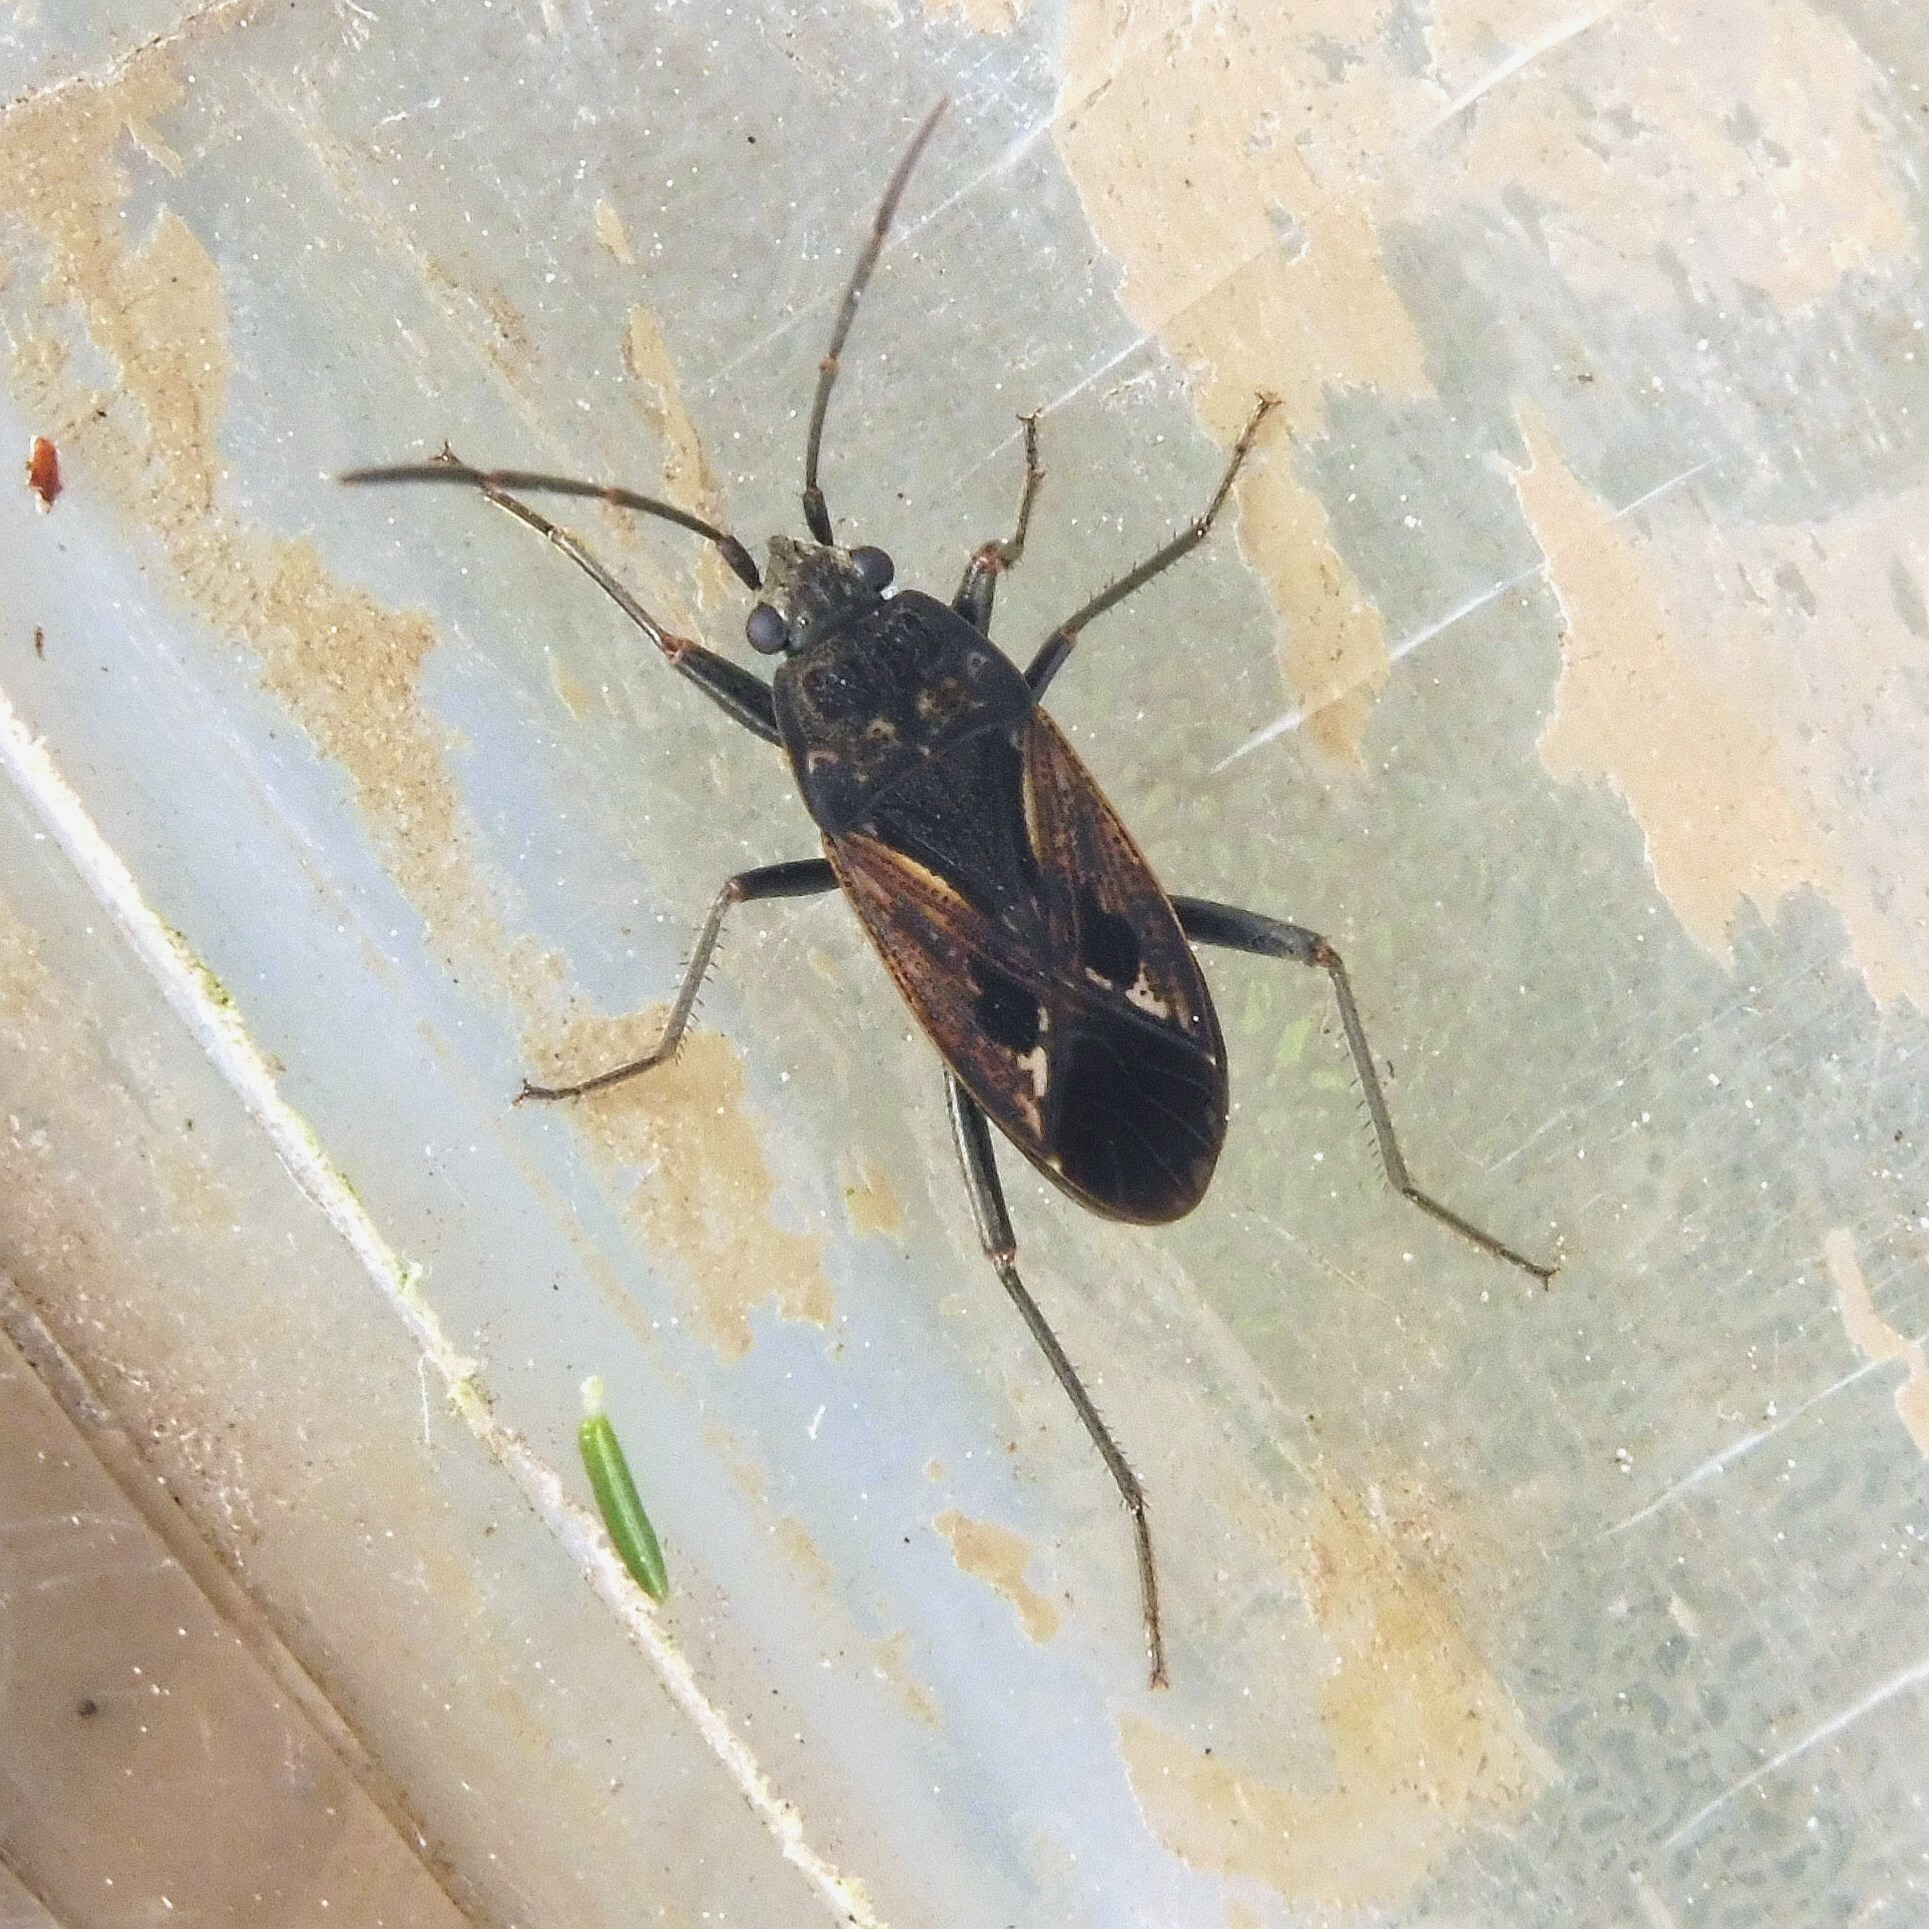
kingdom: Animalia
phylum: Arthropoda
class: Insecta
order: Hemiptera
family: Rhyparochromidae
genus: Rhyparochromus
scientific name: Rhyparochromus pini
